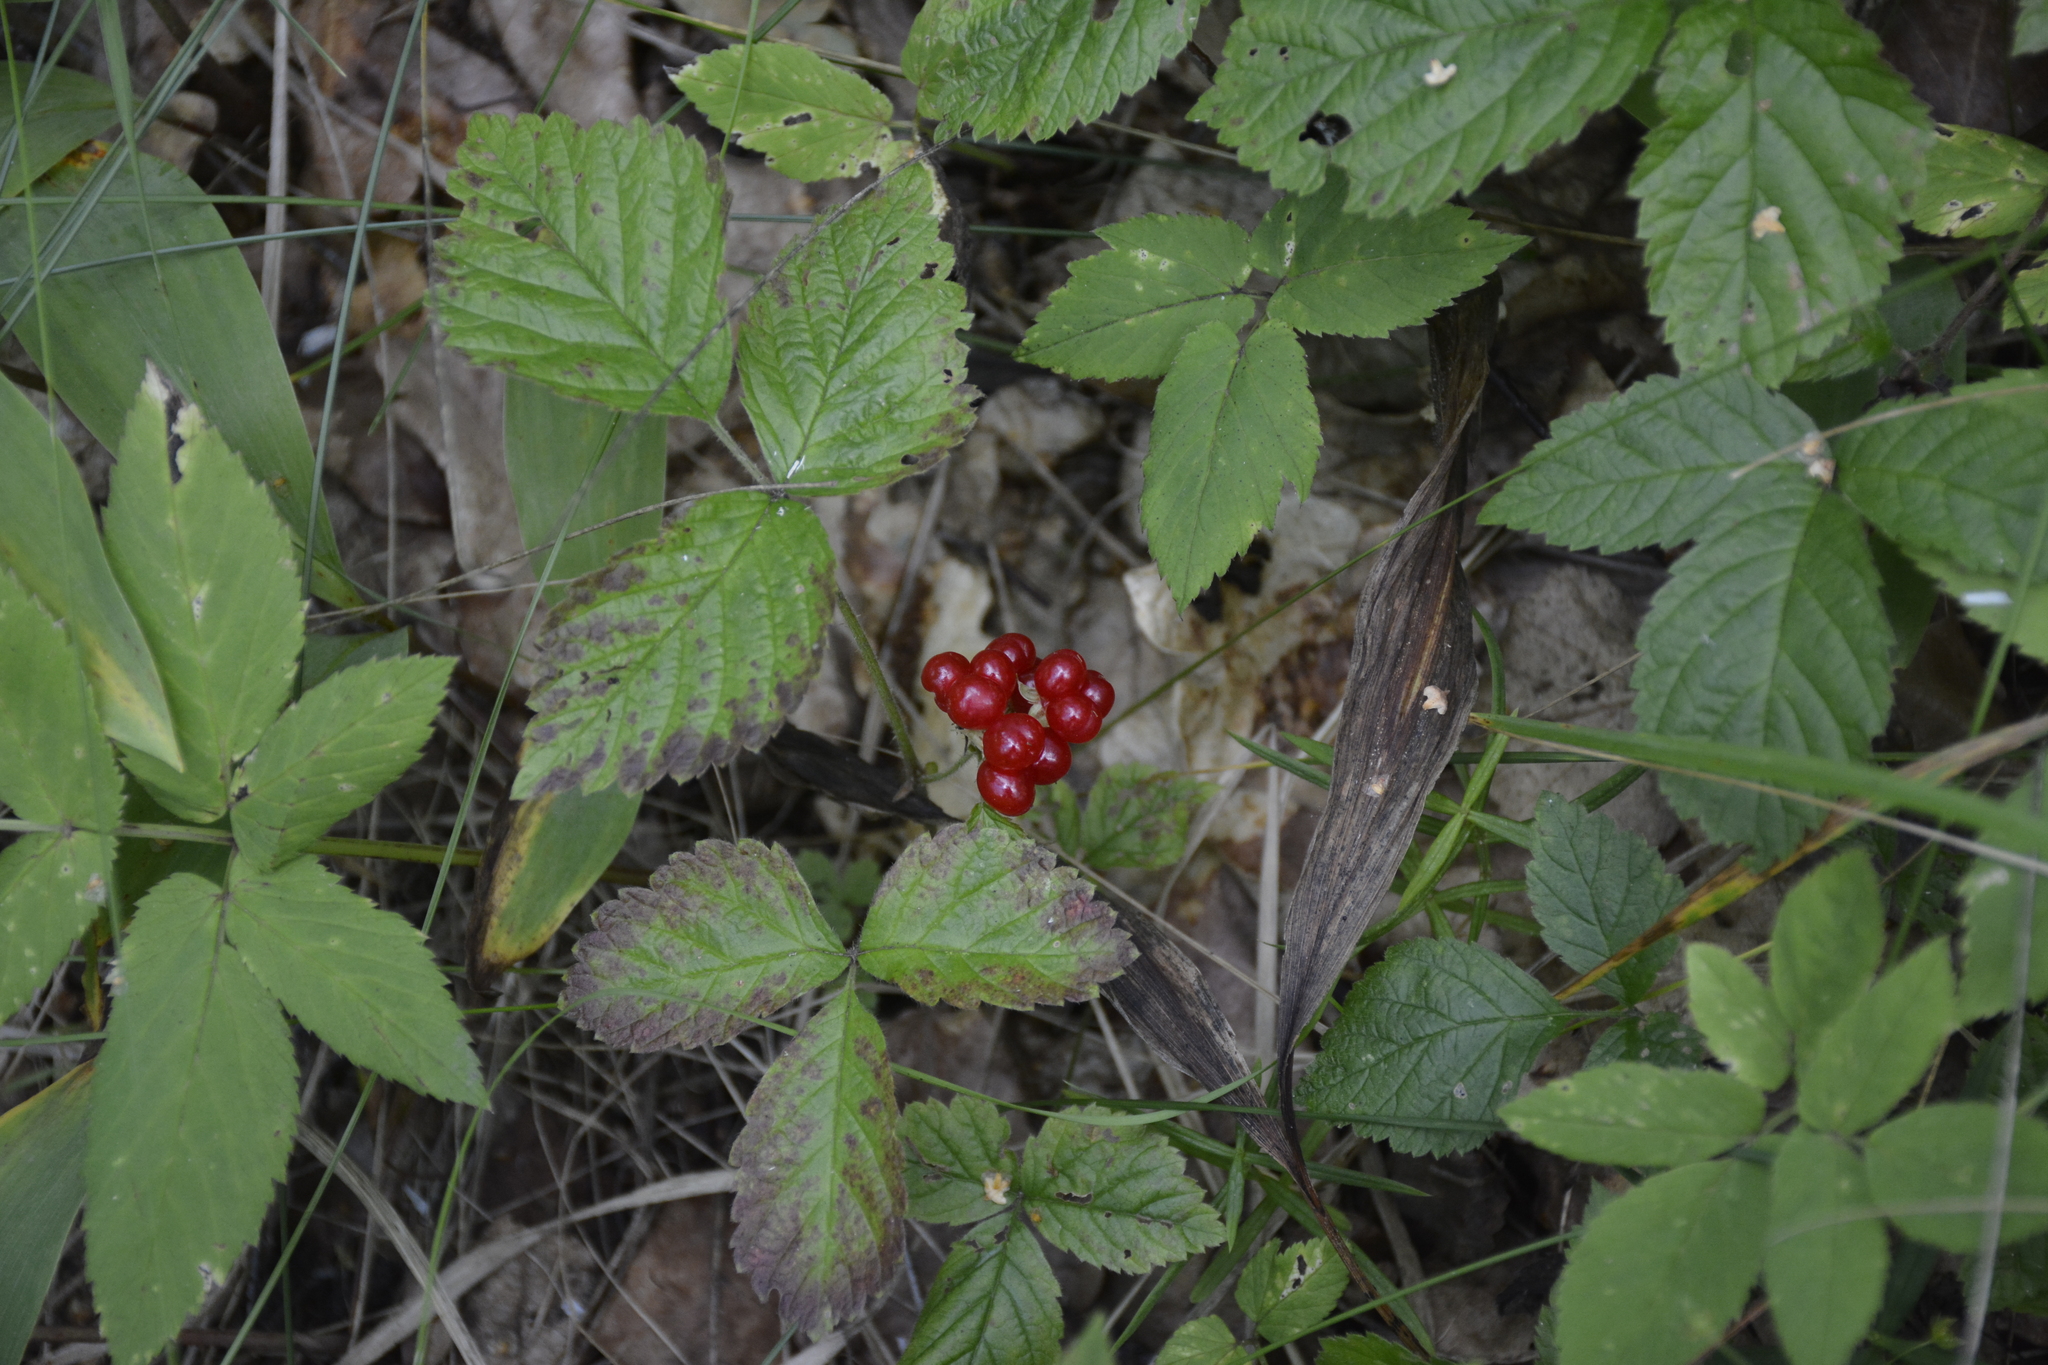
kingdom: Plantae
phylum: Tracheophyta
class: Magnoliopsida
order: Rosales
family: Rosaceae
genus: Rubus
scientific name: Rubus saxatilis
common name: Stone bramble
